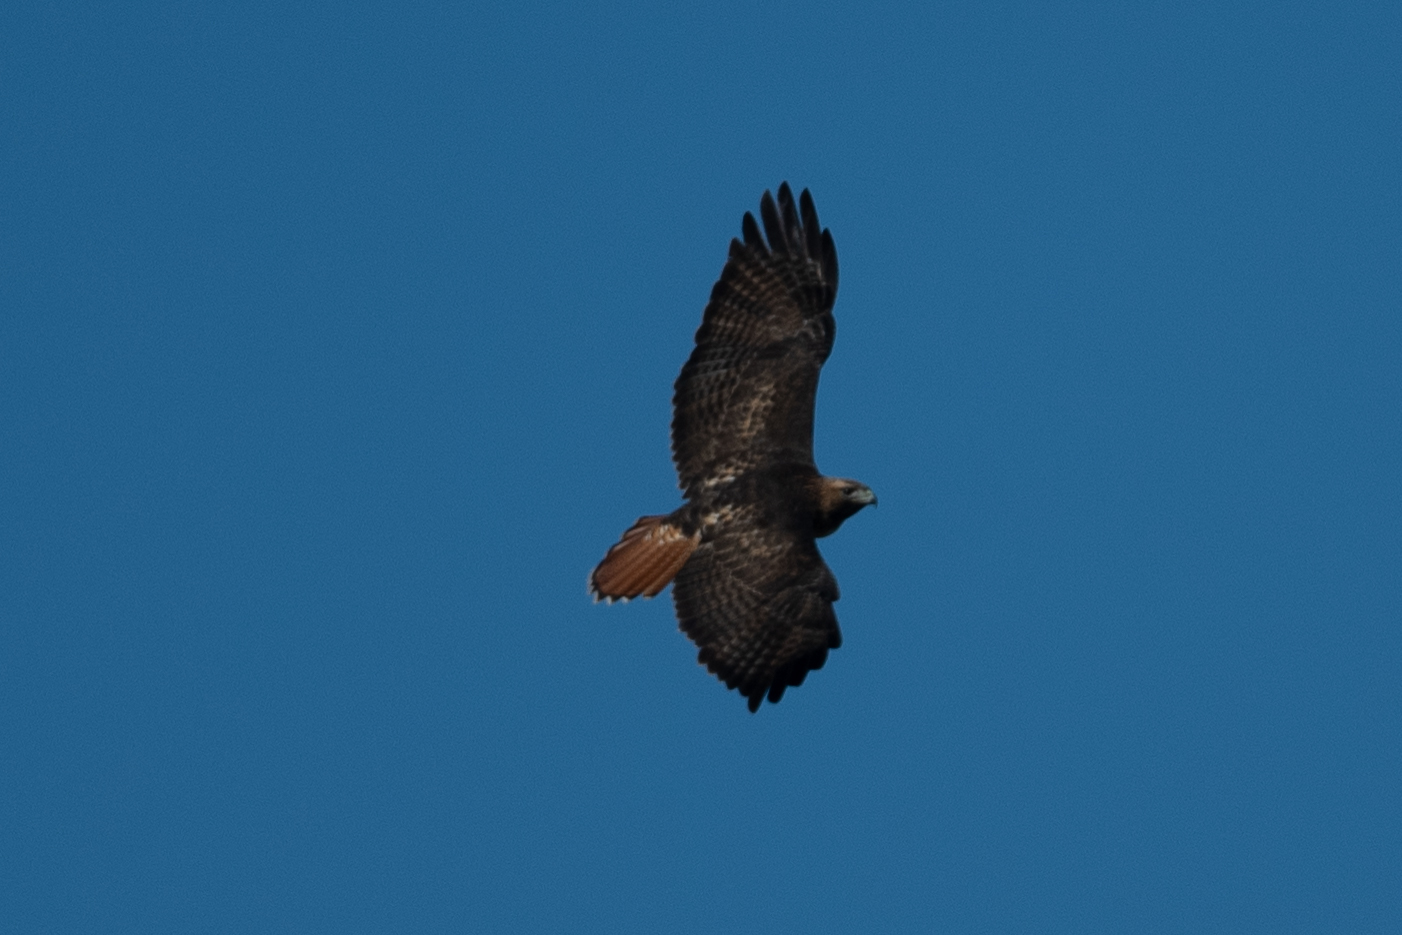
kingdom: Animalia
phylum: Chordata
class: Aves
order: Accipitriformes
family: Accipitridae
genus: Buteo
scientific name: Buteo jamaicensis
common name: Red-tailed hawk
